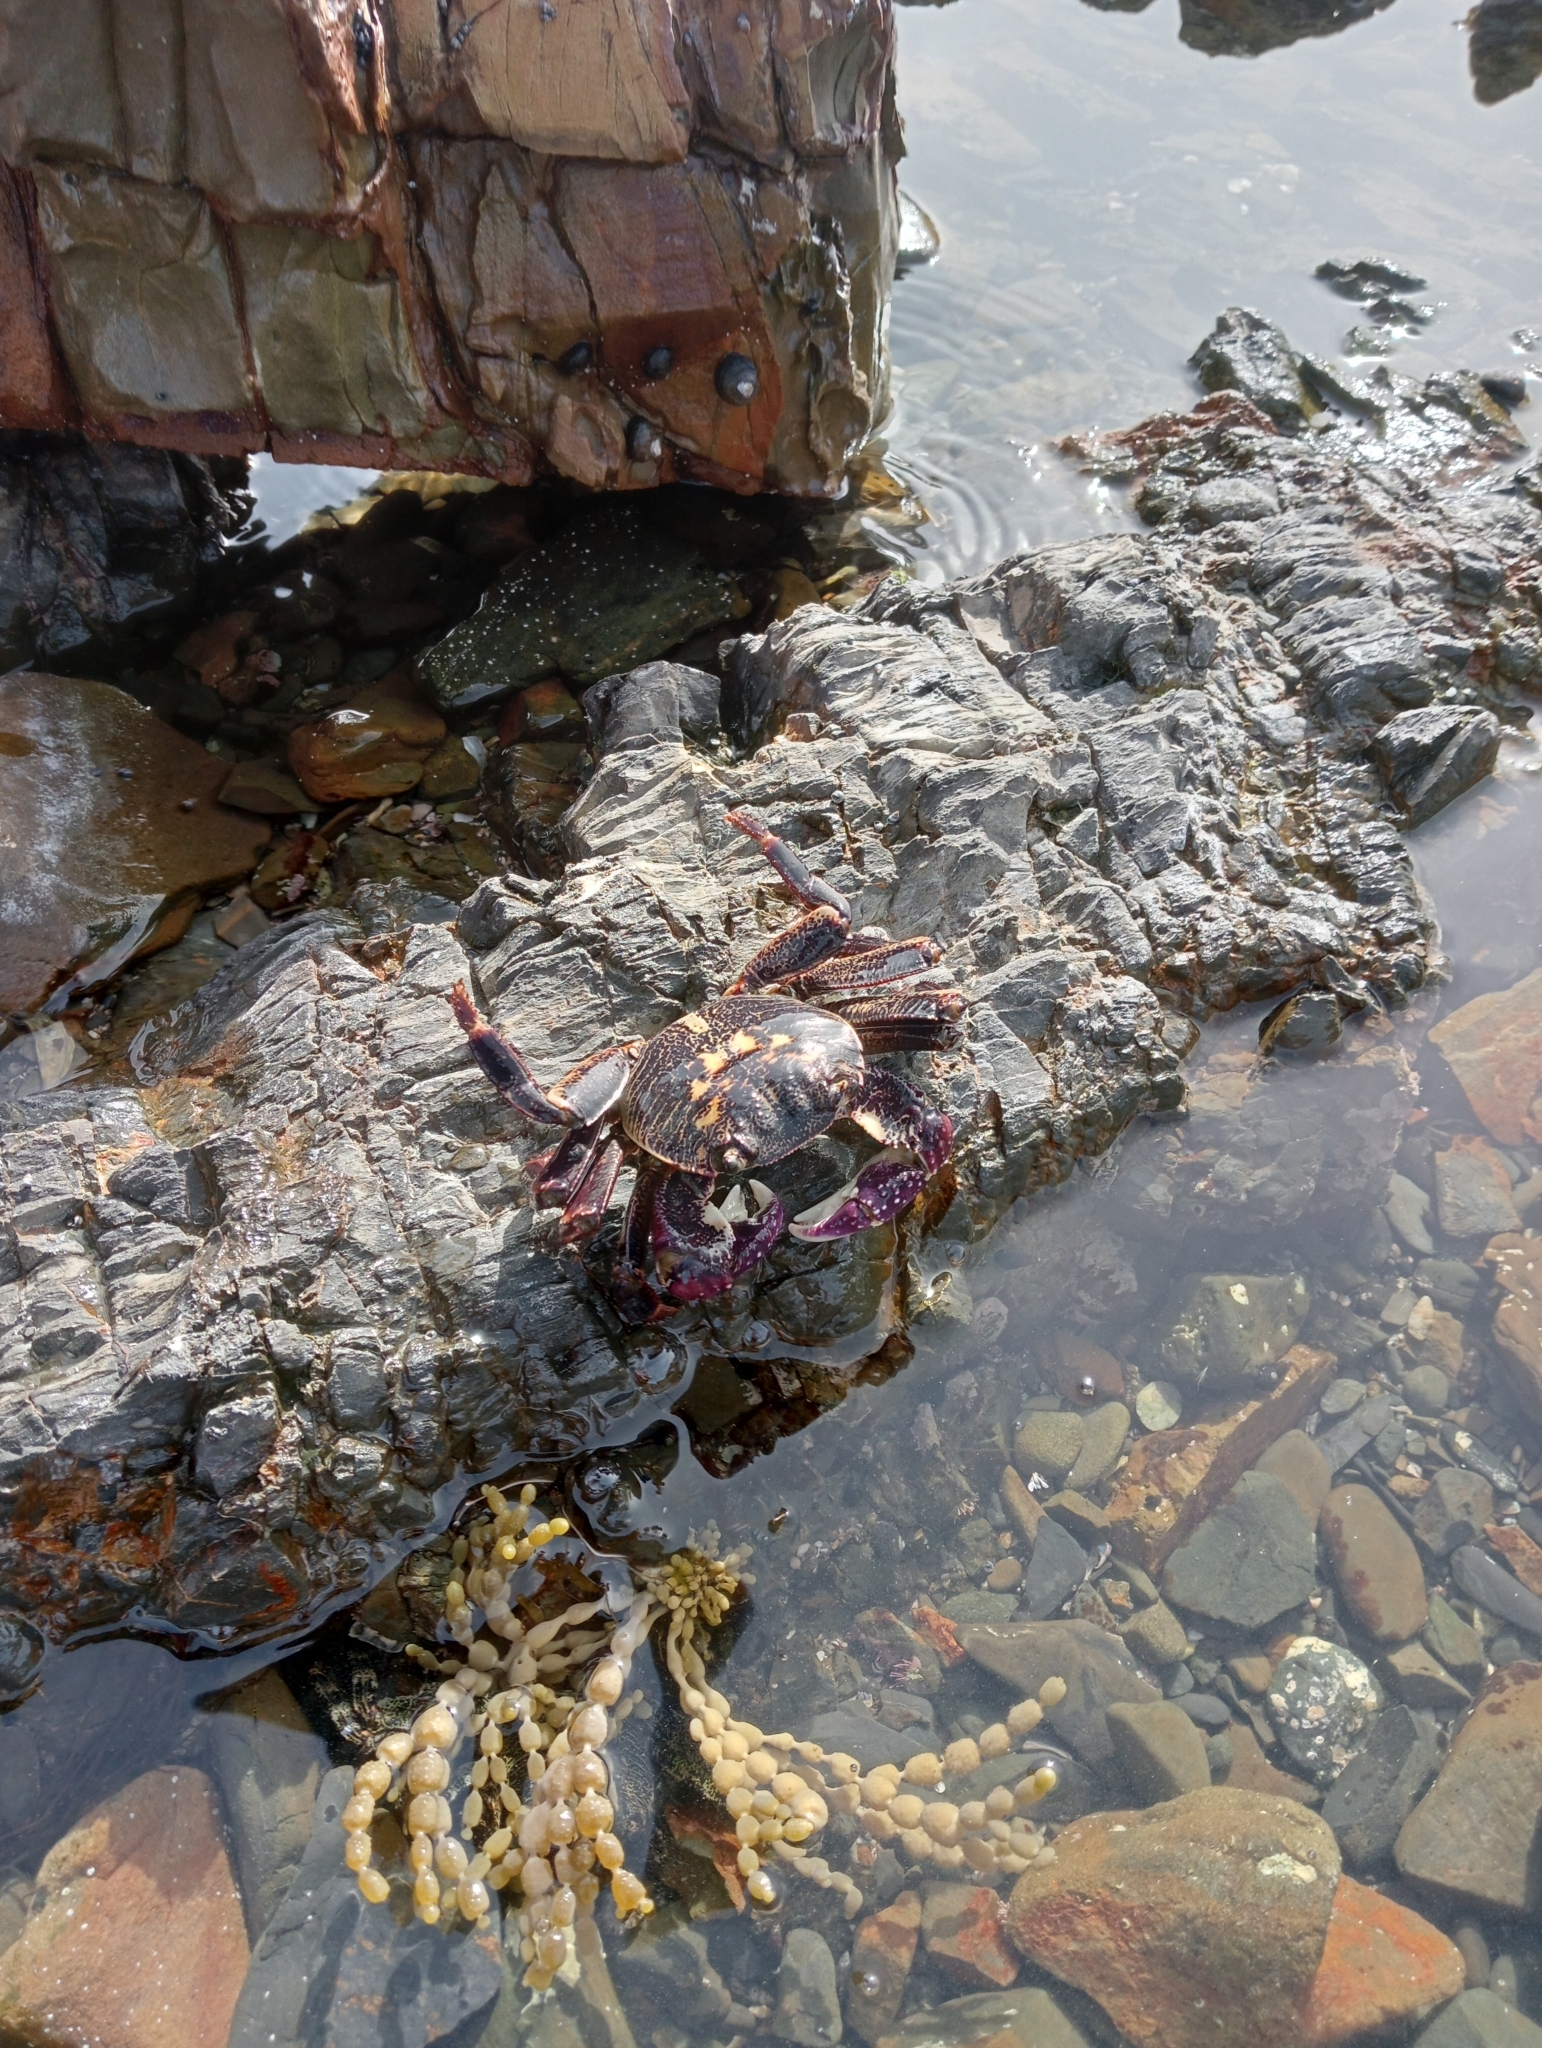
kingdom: Animalia
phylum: Arthropoda
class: Malacostraca
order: Decapoda
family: Grapsidae
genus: Leptograpsus
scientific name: Leptograpsus variegatus
